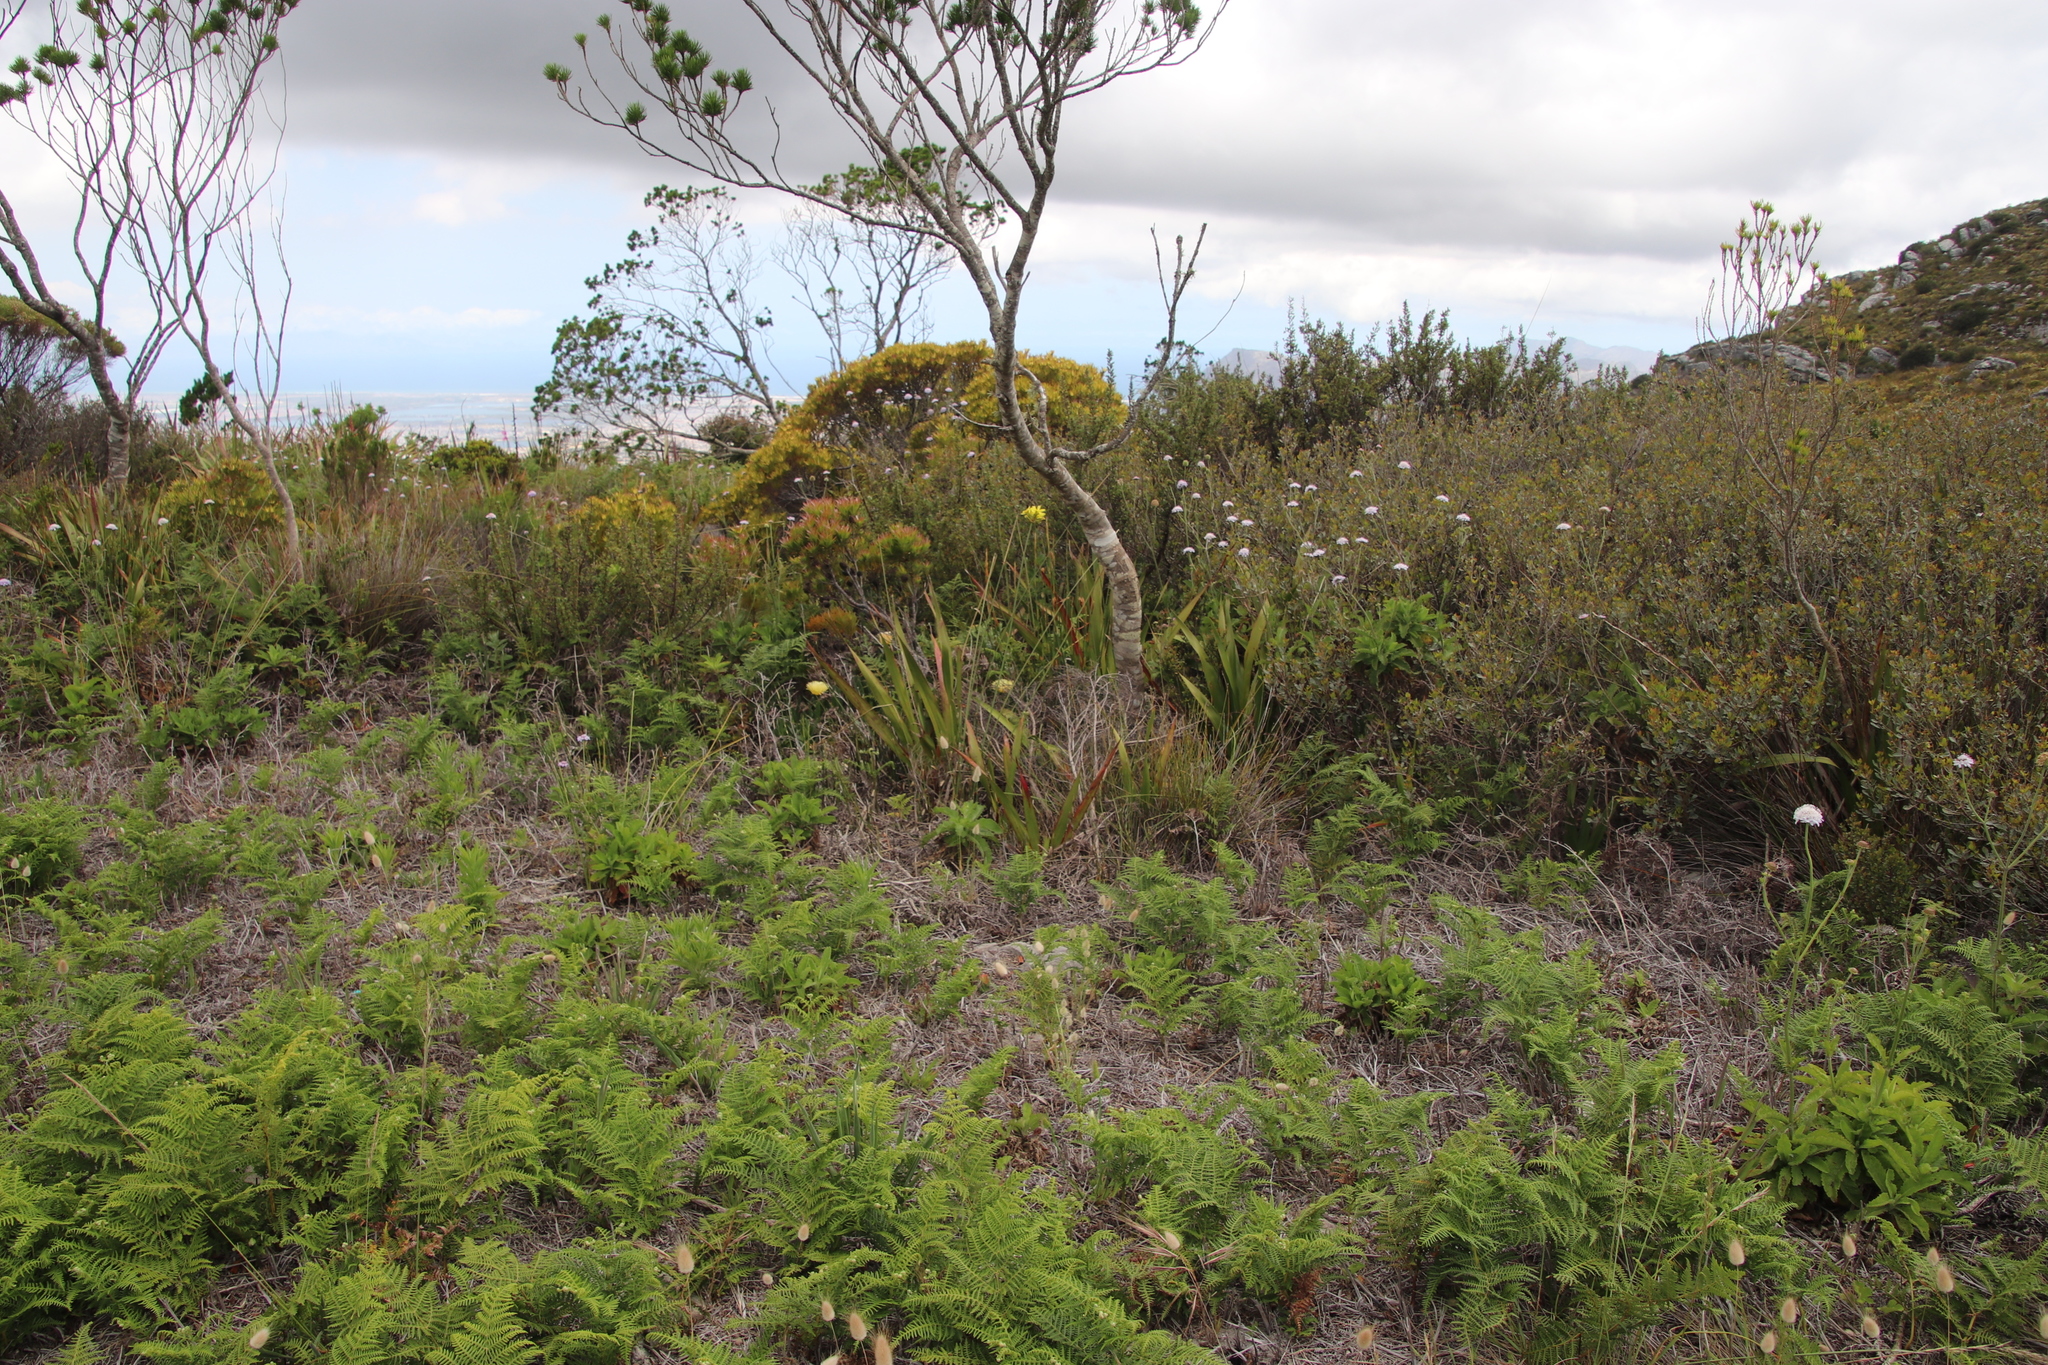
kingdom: Plantae
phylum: Tracheophyta
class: Liliopsida
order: Asparagales
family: Iridaceae
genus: Bobartia
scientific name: Bobartia indica
